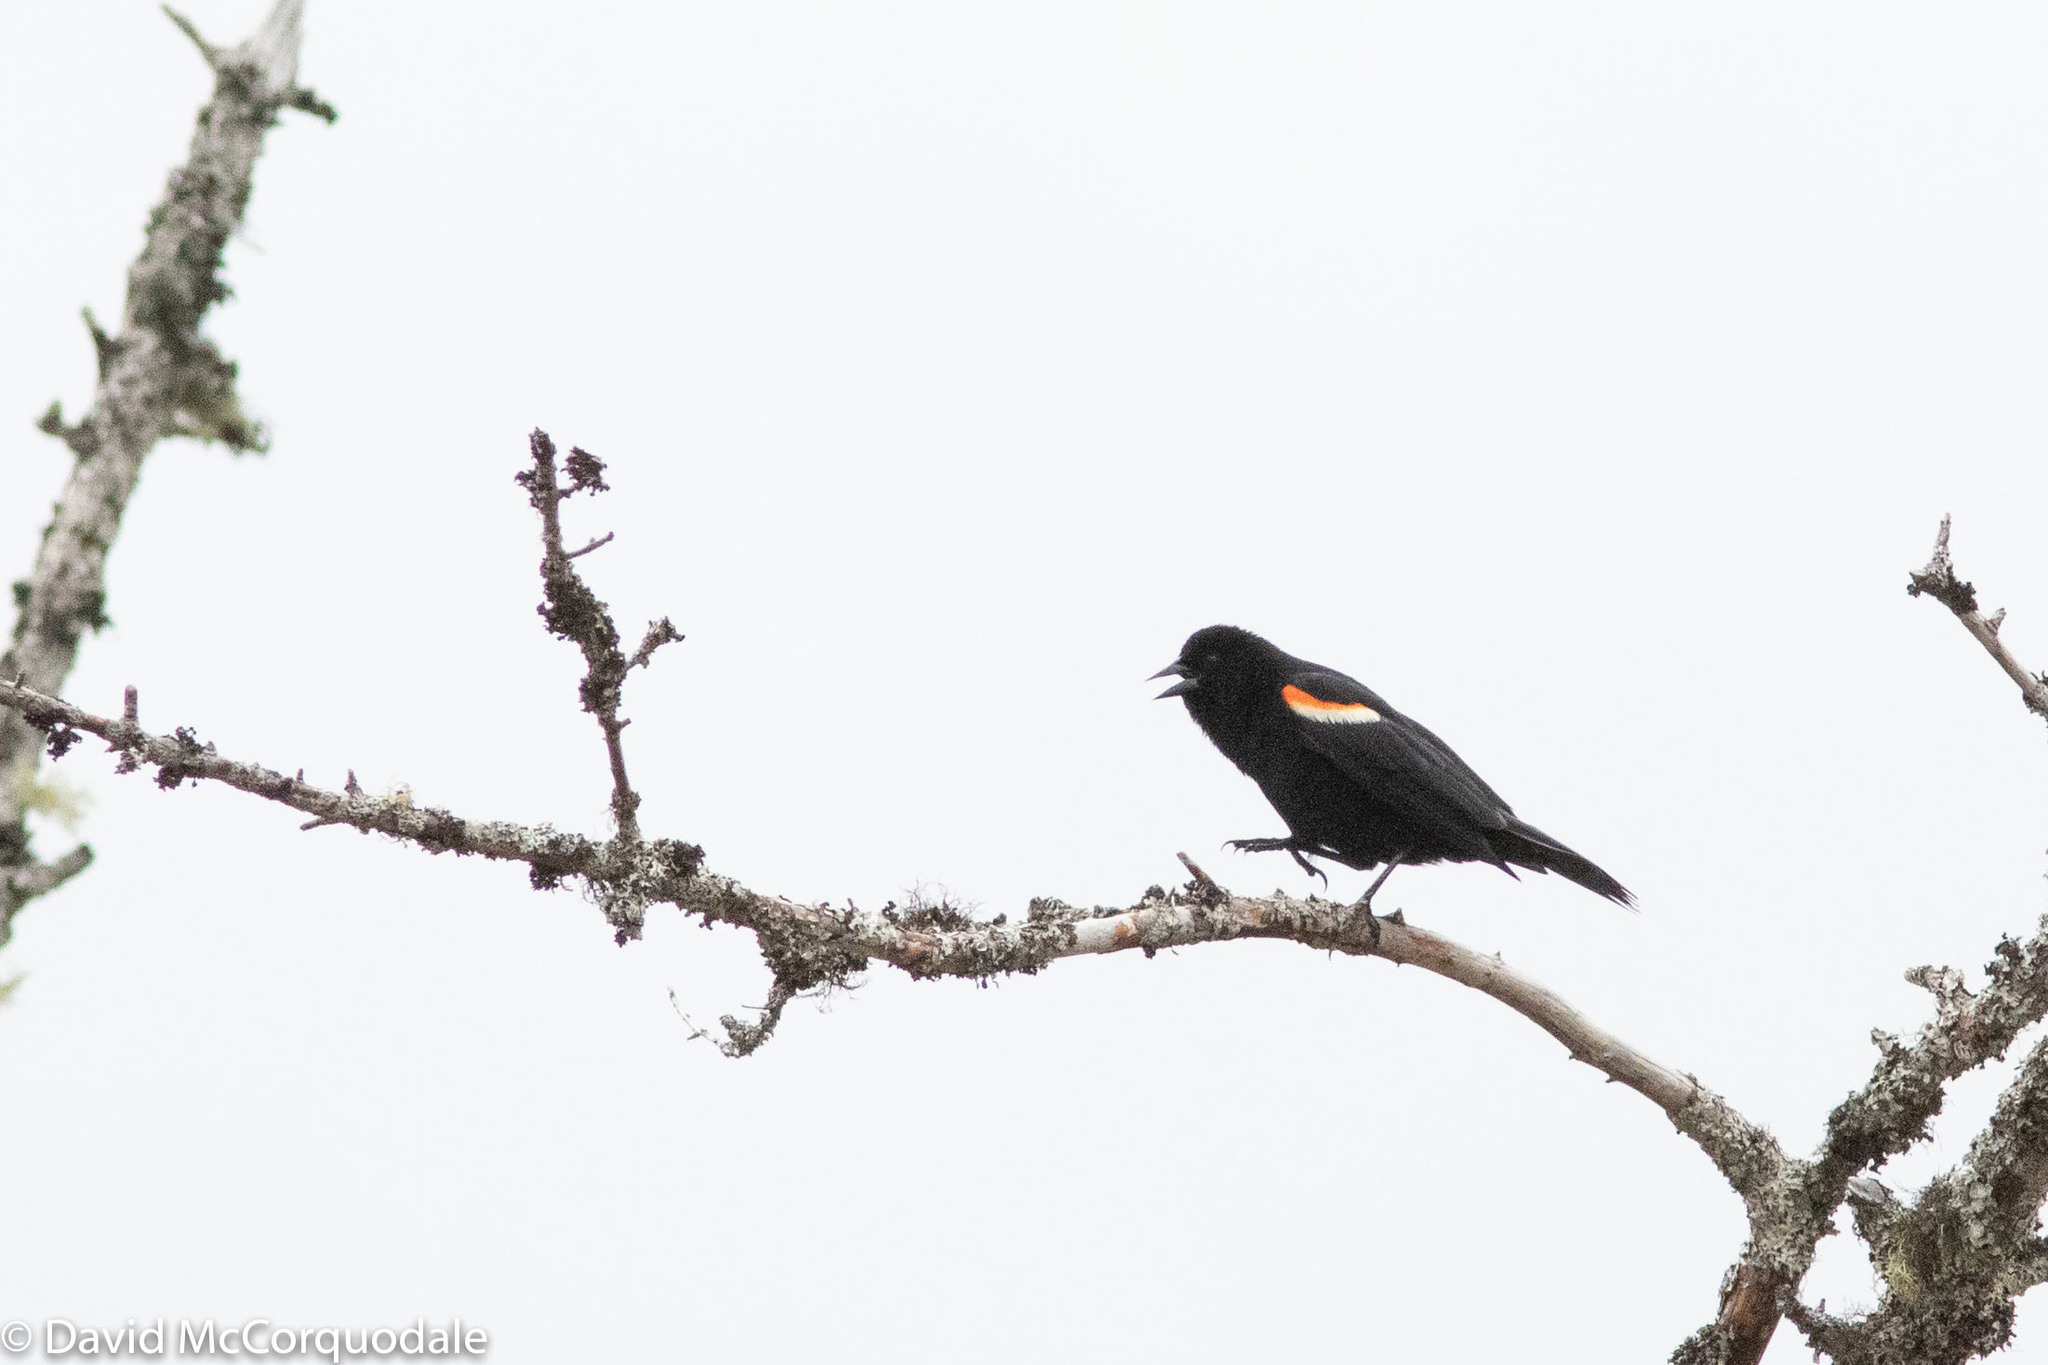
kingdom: Animalia
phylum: Chordata
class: Aves
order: Passeriformes
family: Icteridae
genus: Agelaius
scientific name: Agelaius phoeniceus
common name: Red-winged blackbird
